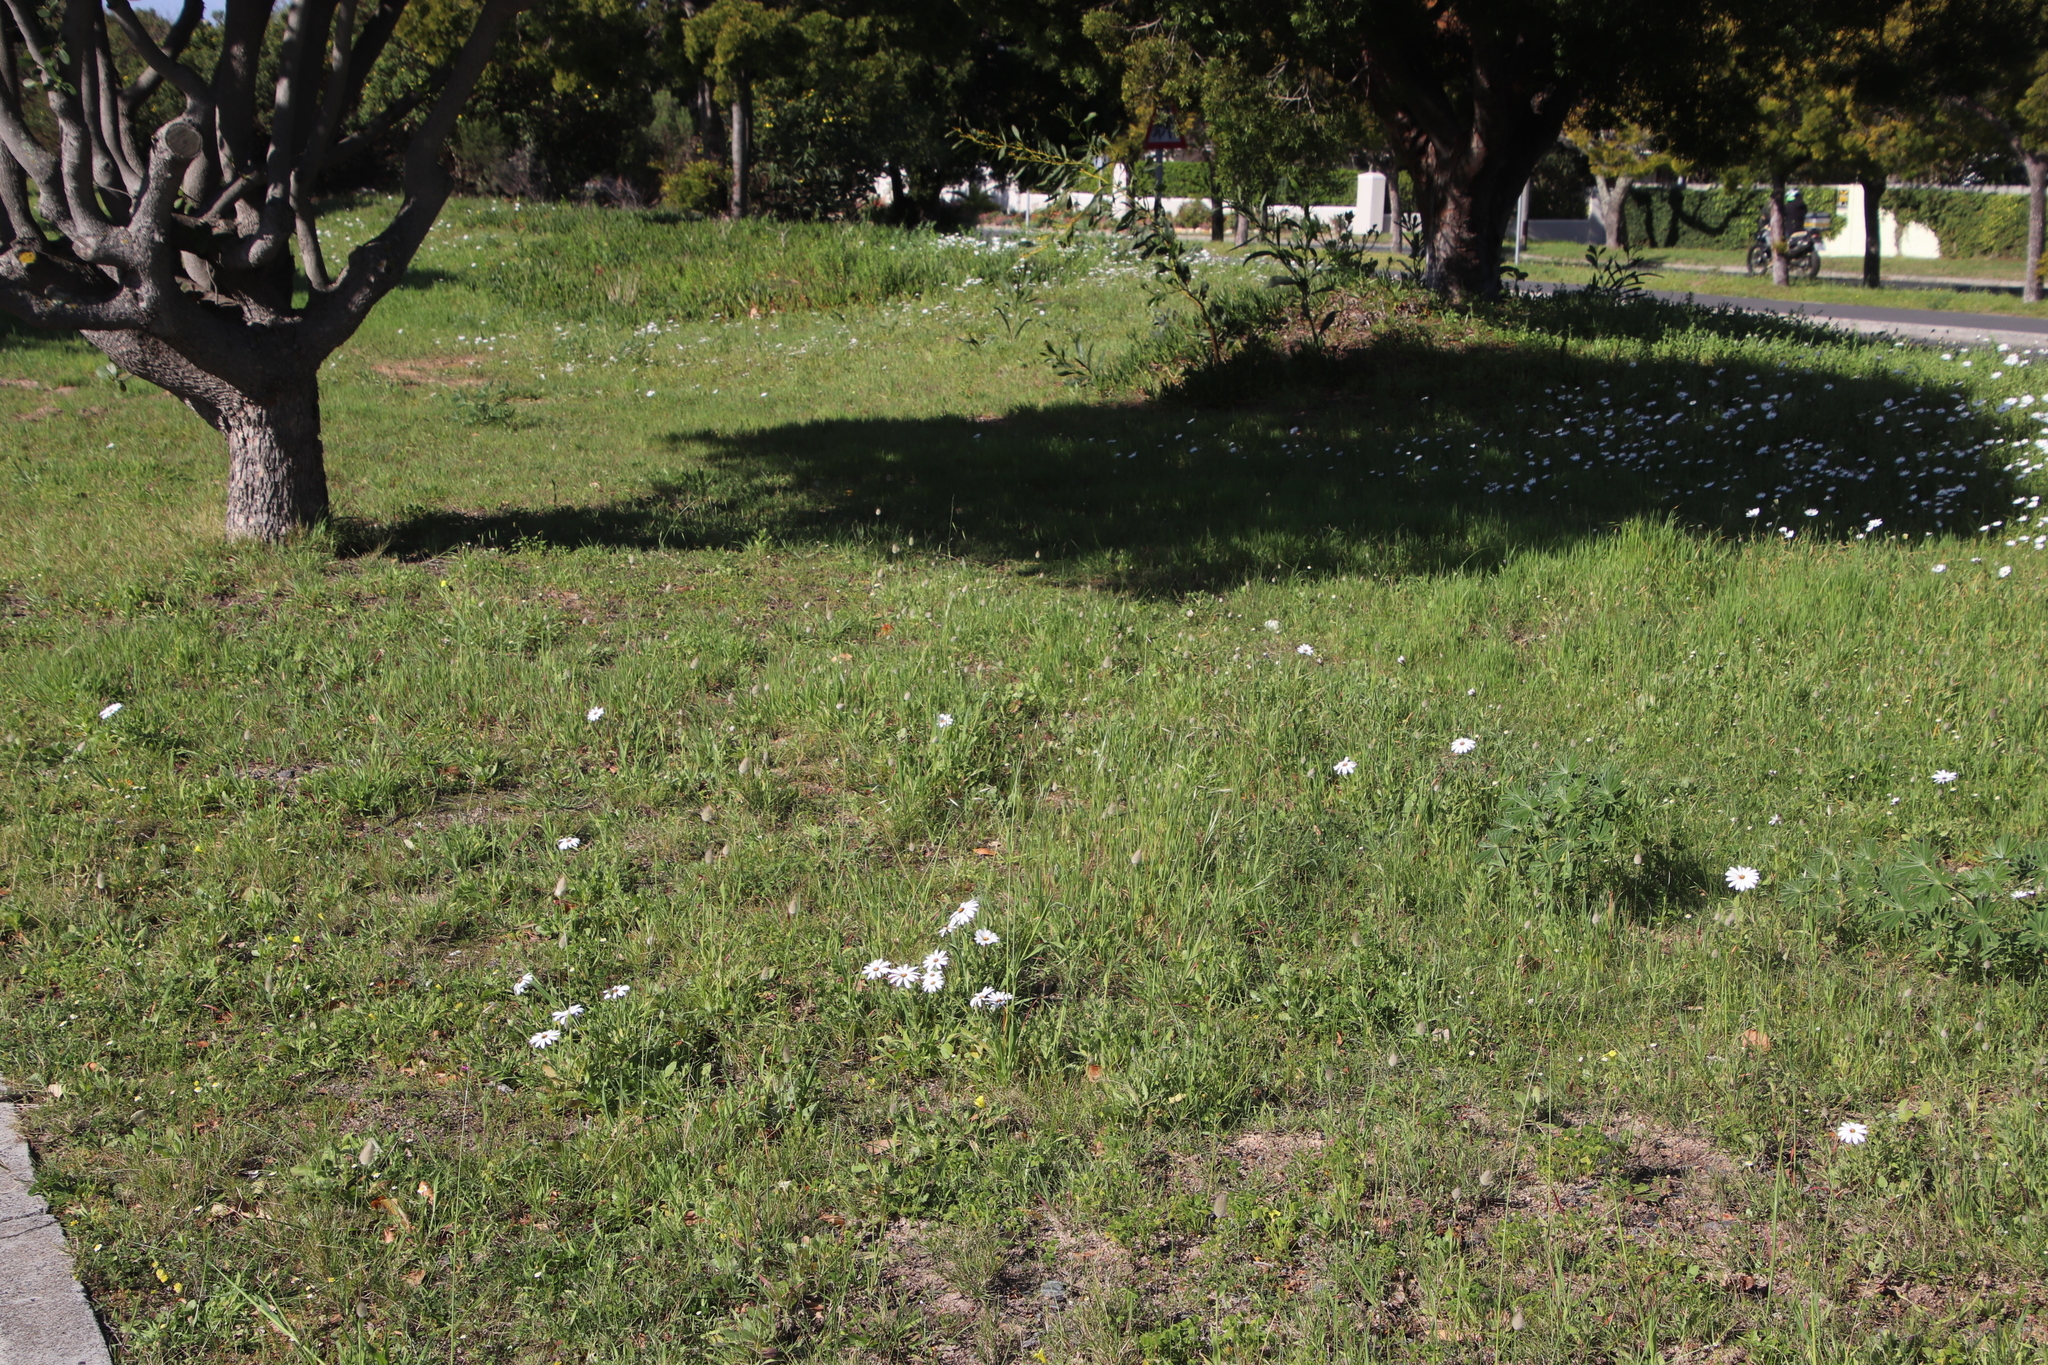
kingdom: Plantae
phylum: Tracheophyta
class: Liliopsida
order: Poales
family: Poaceae
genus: Lagurus
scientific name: Lagurus ovatus
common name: Hare's-tail
